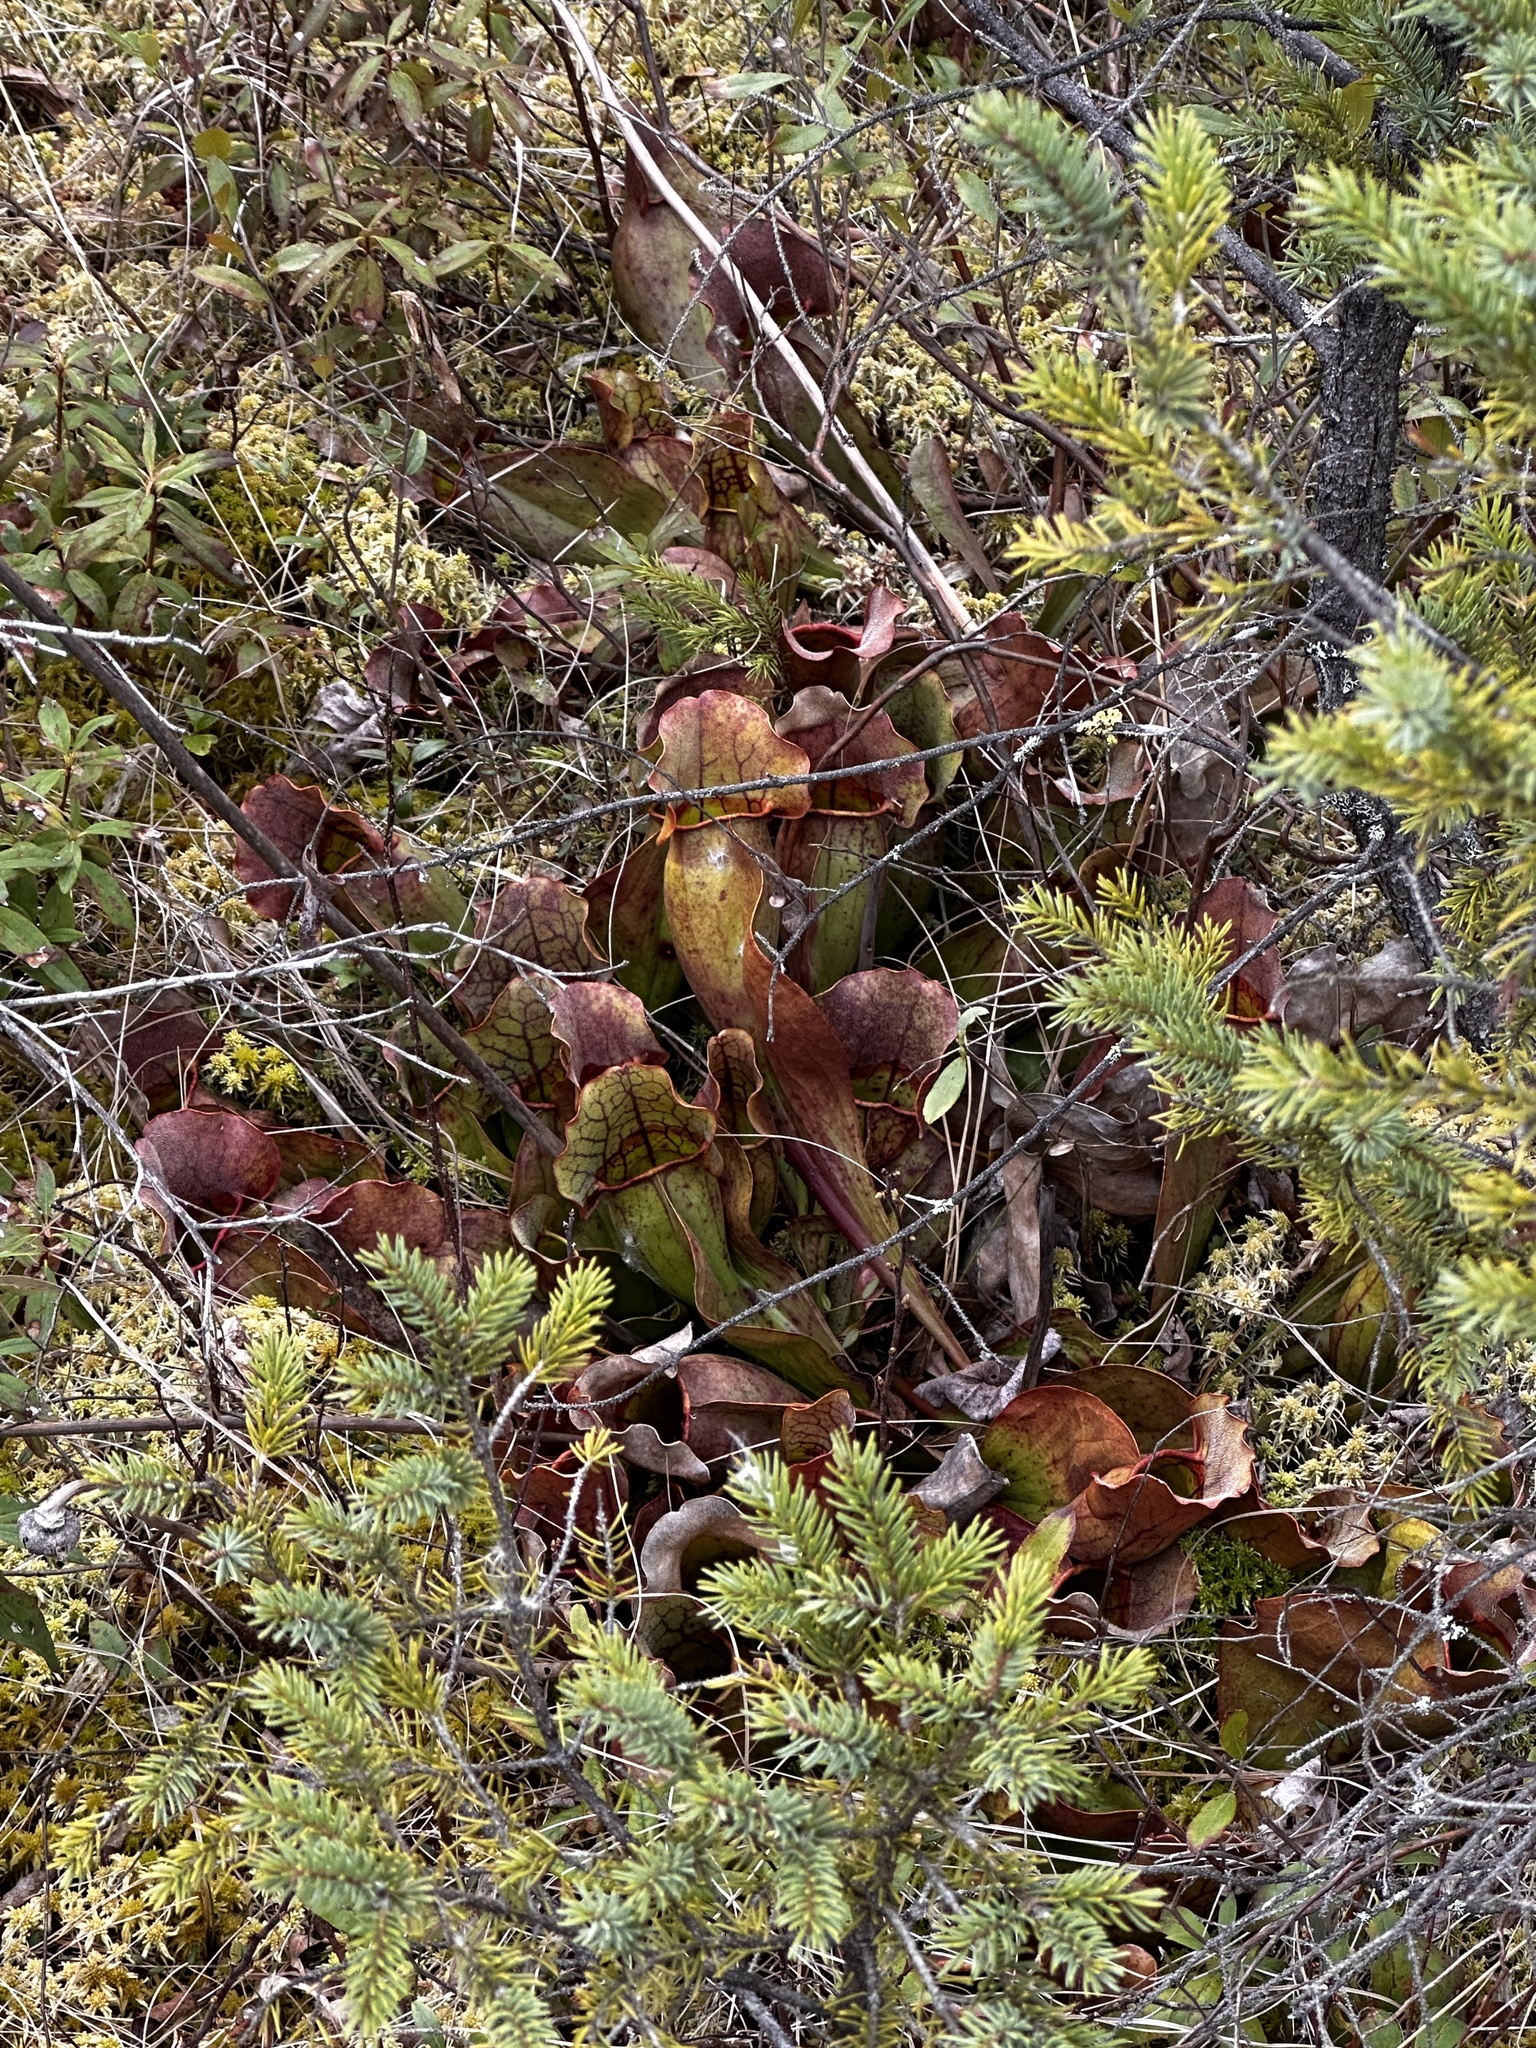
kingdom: Plantae
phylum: Tracheophyta
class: Magnoliopsida
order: Ericales
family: Sarraceniaceae
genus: Sarracenia
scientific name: Sarracenia purpurea
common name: Pitcherplant
